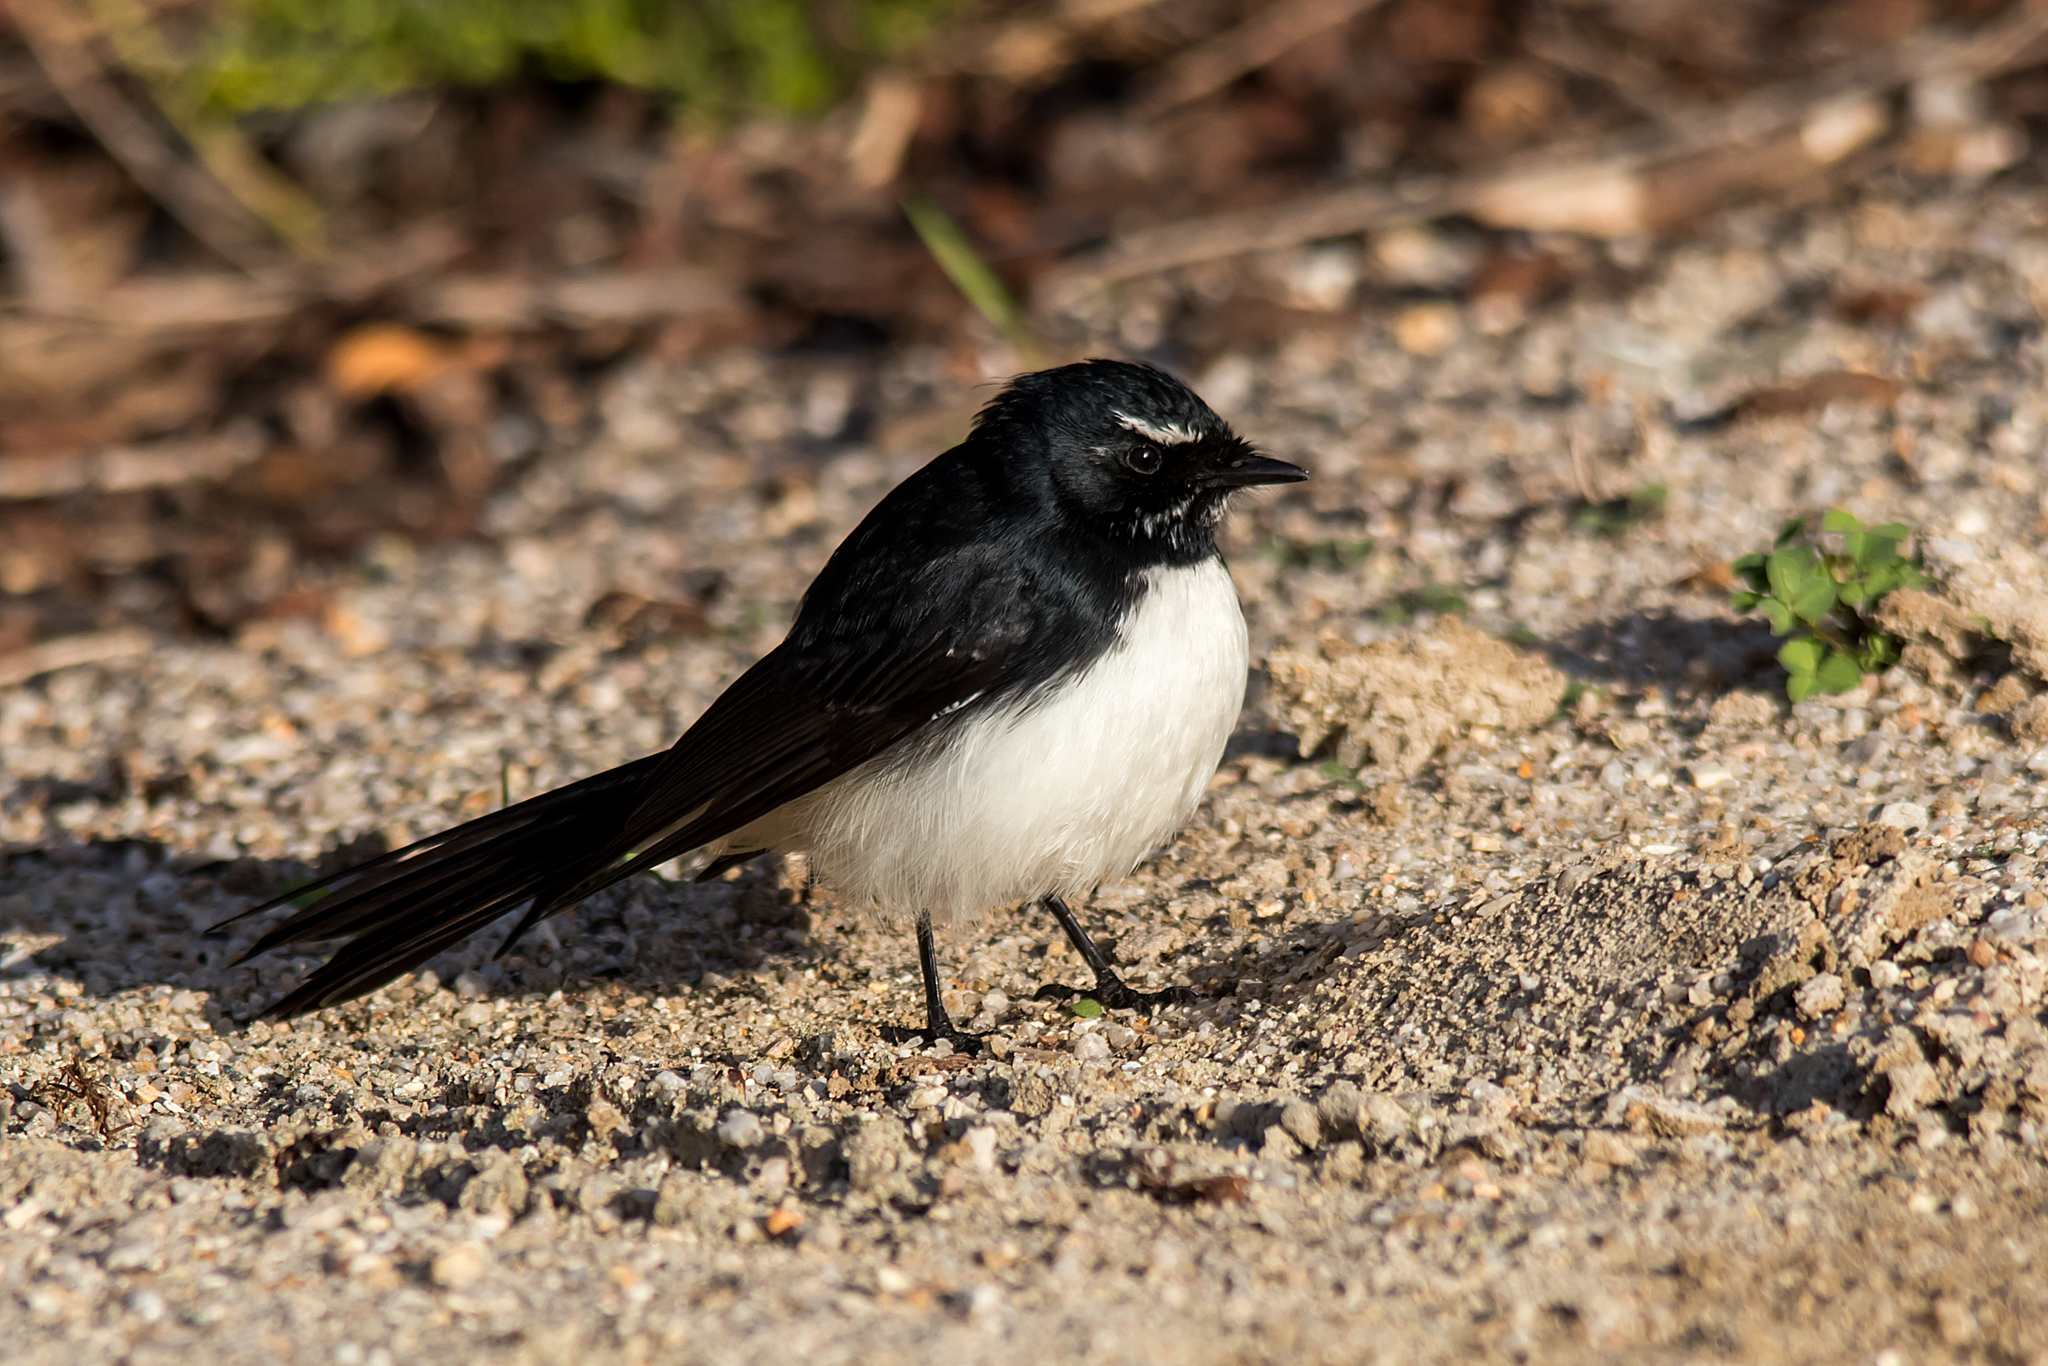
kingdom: Animalia
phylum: Chordata
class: Aves
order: Passeriformes
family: Rhipiduridae
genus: Rhipidura
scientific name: Rhipidura leucophrys
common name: Willie wagtail
